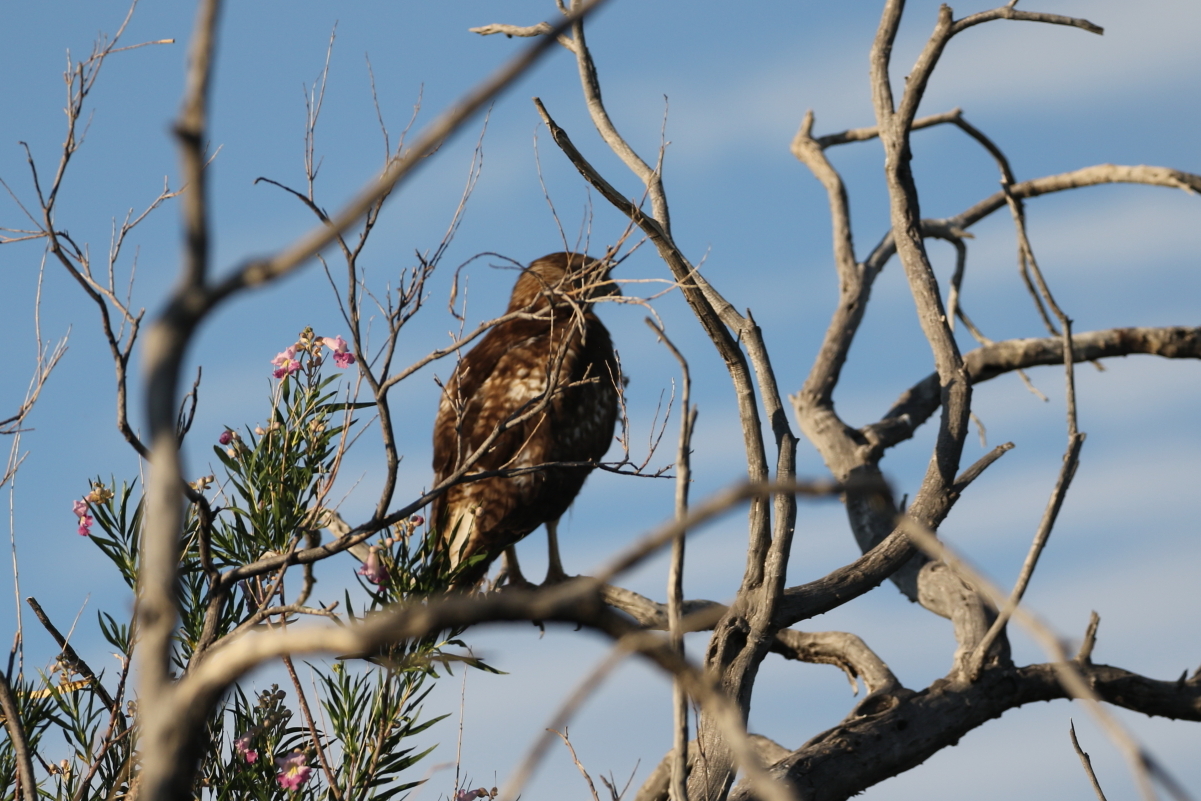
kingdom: Animalia
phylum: Chordata
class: Aves
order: Accipitriformes
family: Accipitridae
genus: Buteo
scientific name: Buteo jamaicensis
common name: Red-tailed hawk
